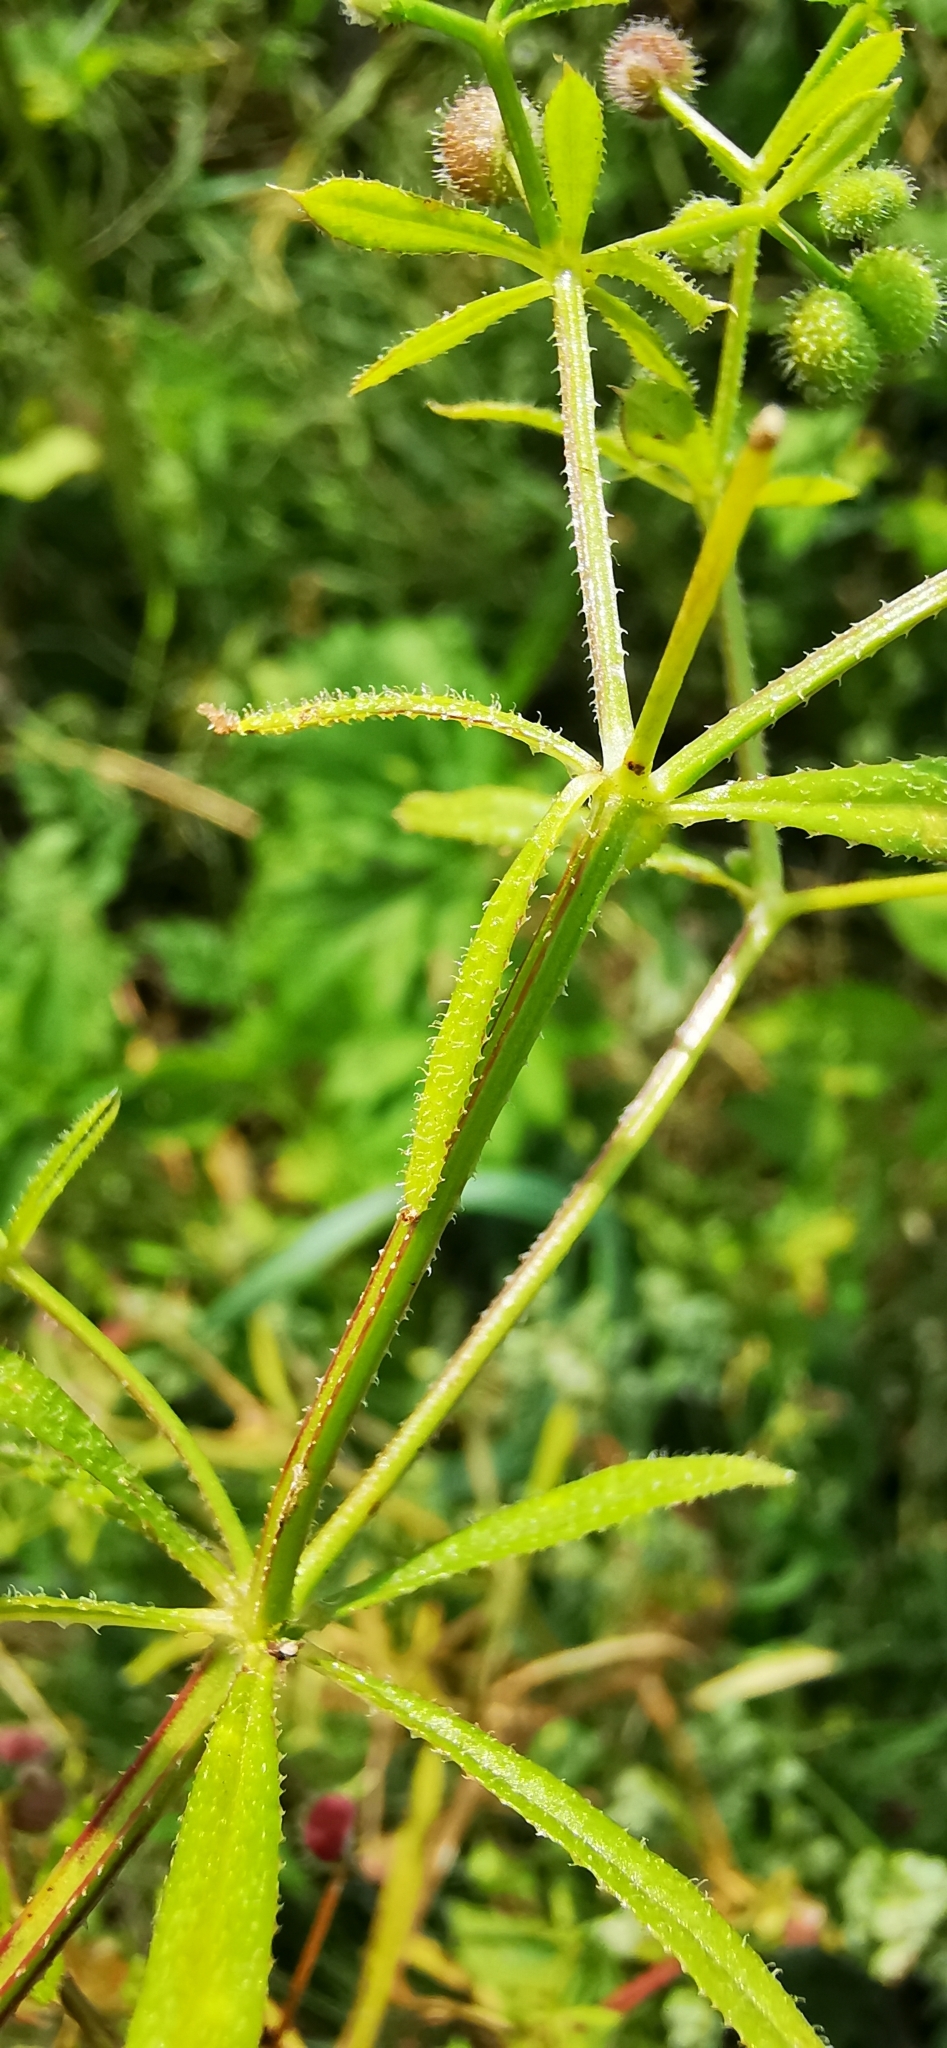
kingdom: Plantae
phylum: Tracheophyta
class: Magnoliopsida
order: Gentianales
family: Rubiaceae
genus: Galium
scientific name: Galium aparine
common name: Cleavers
